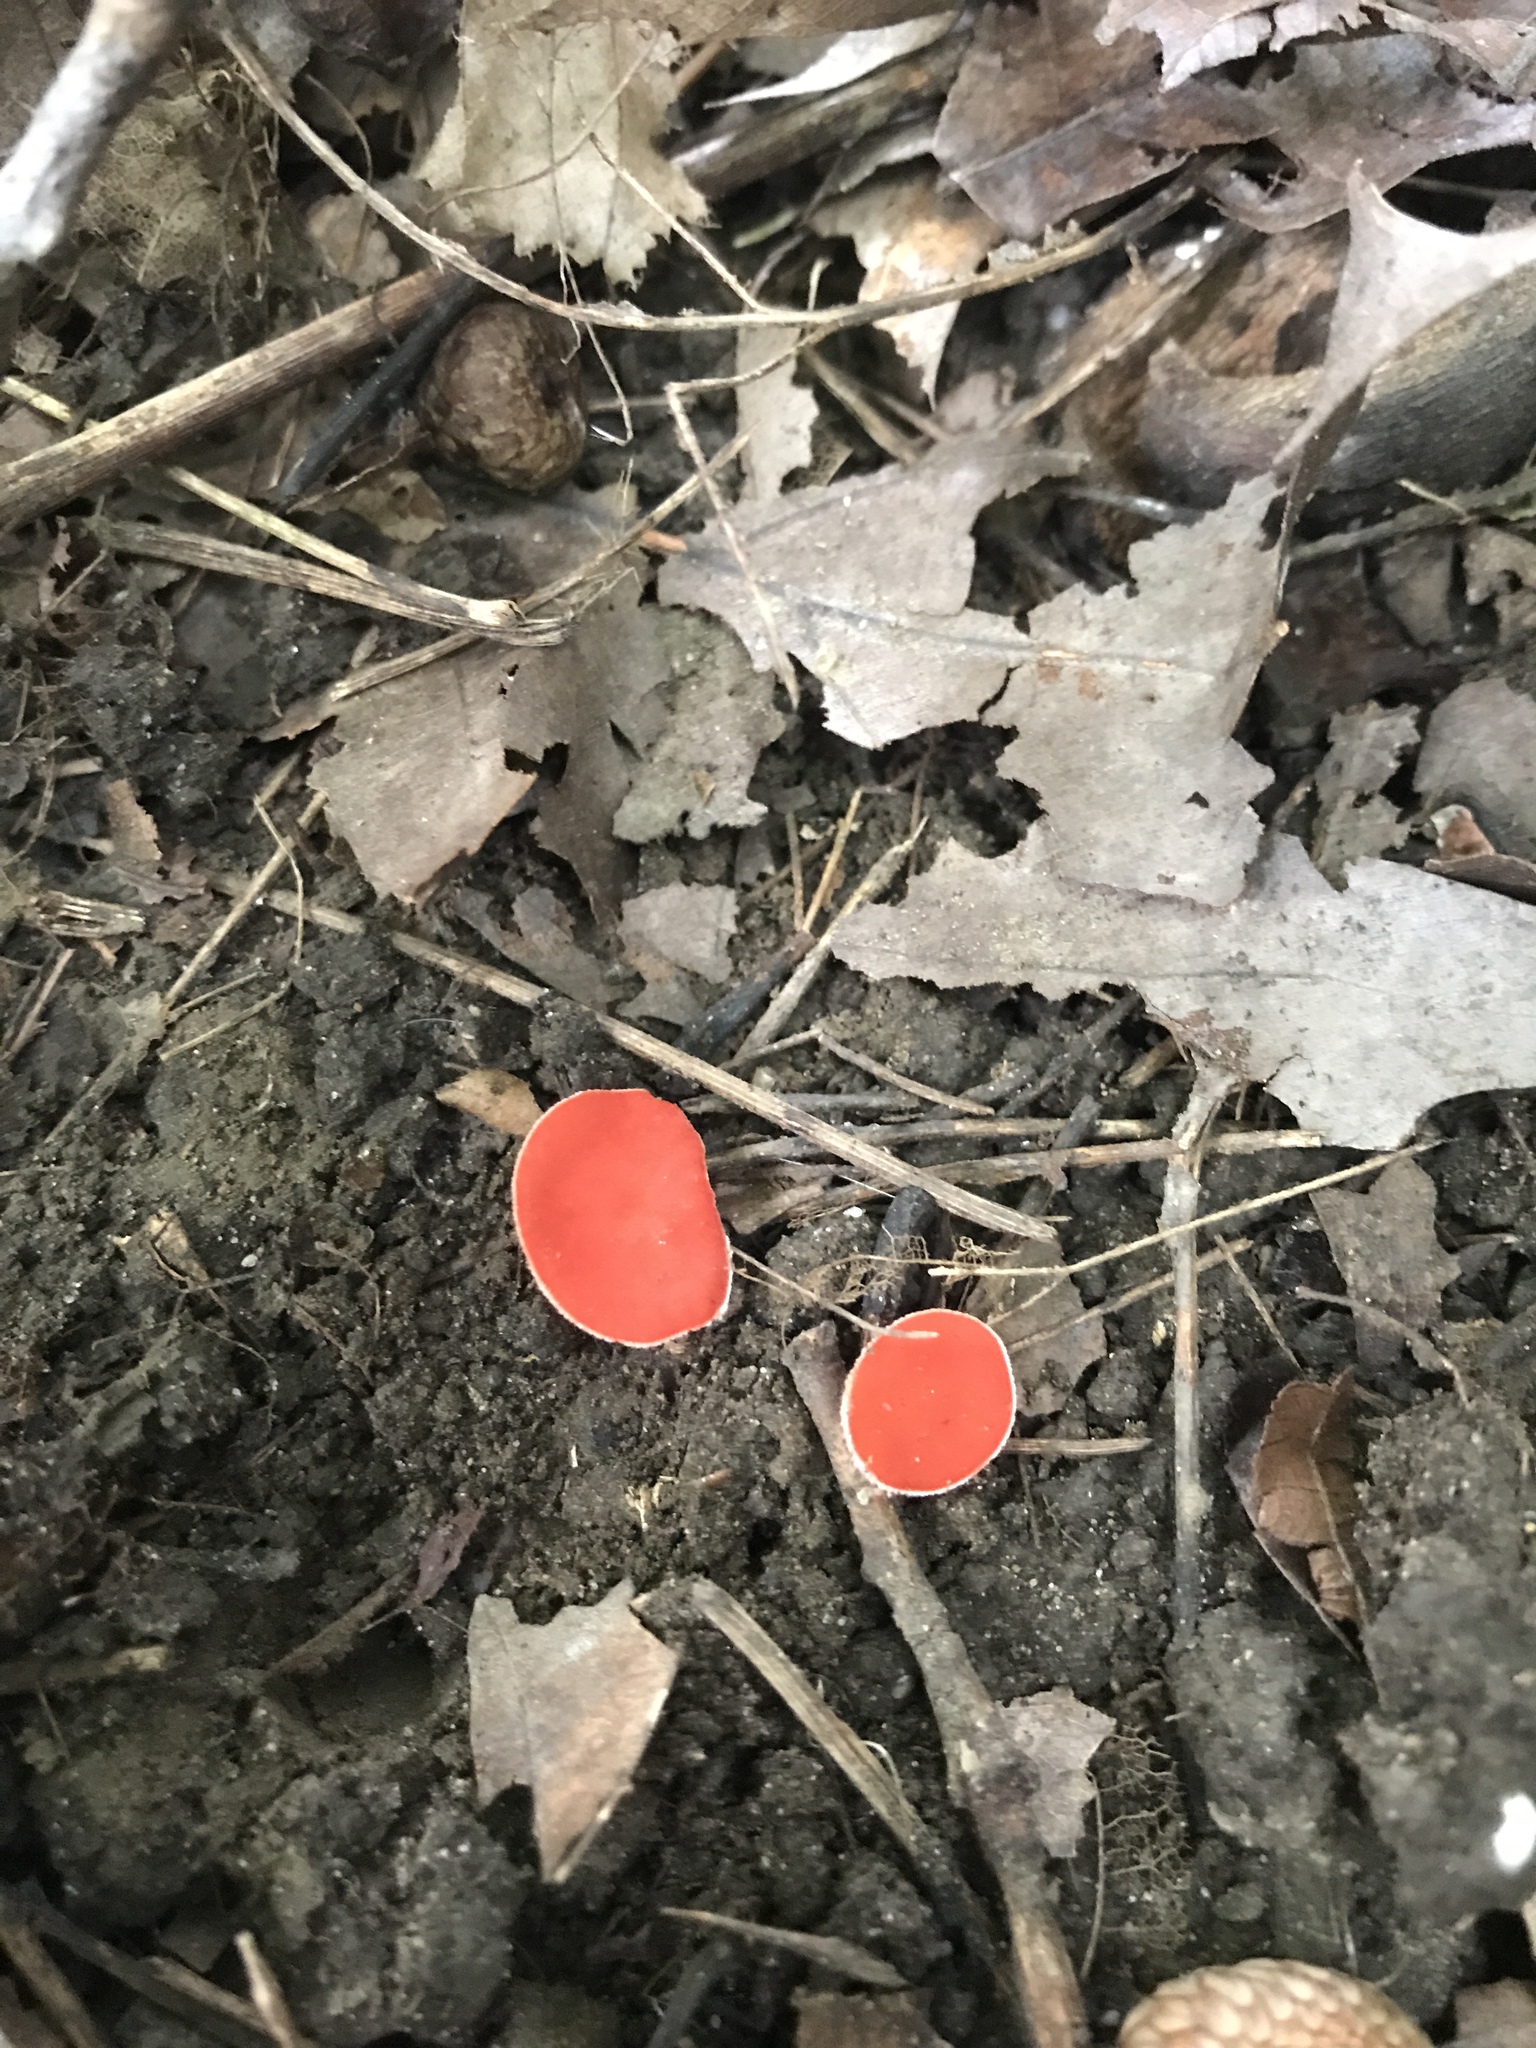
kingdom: Fungi
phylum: Ascomycota
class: Pezizomycetes
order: Pezizales
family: Sarcoscyphaceae
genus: Sarcoscypha
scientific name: Sarcoscypha occidentalis
